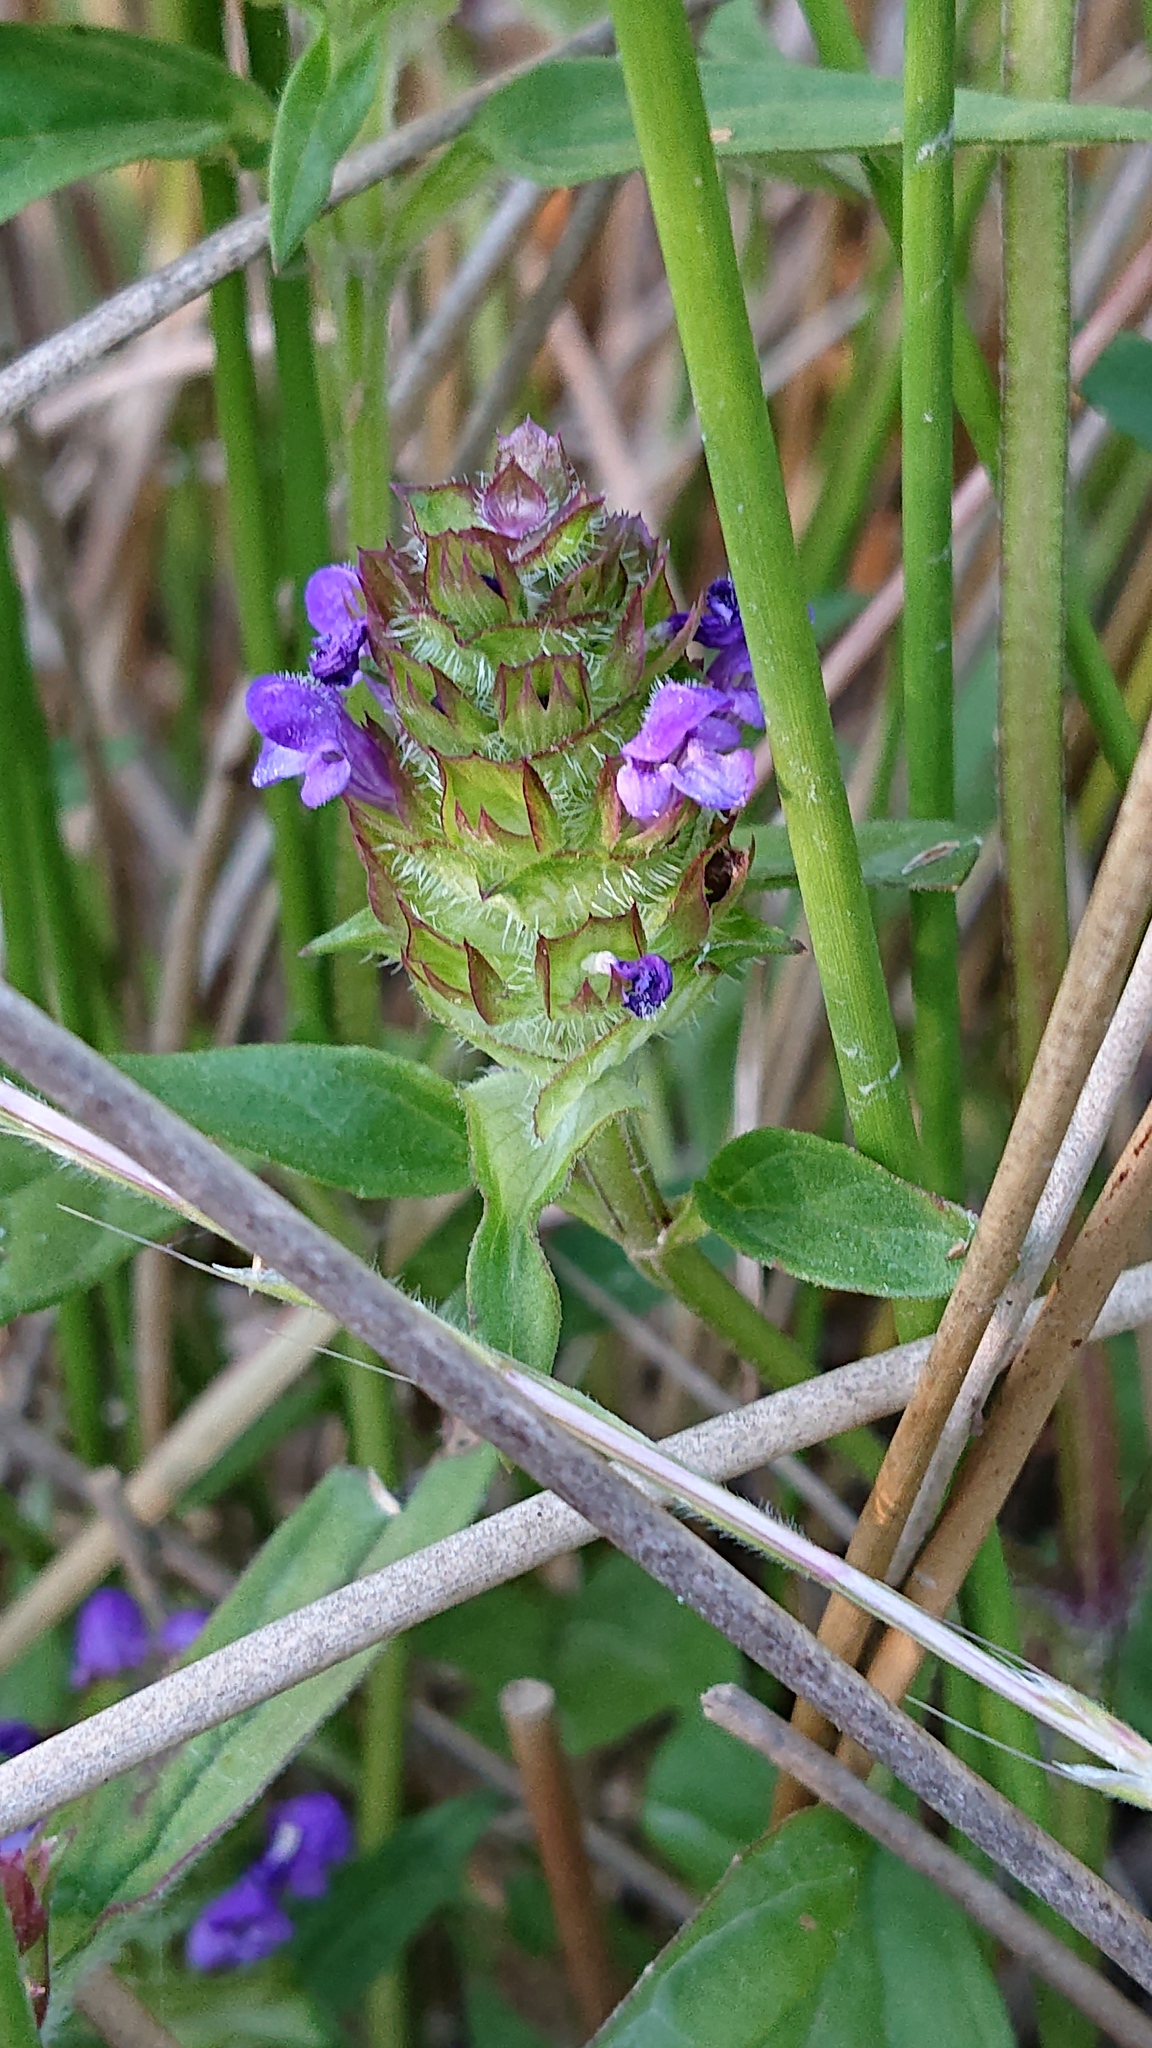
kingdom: Plantae
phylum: Tracheophyta
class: Magnoliopsida
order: Lamiales
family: Lamiaceae
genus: Prunella
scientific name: Prunella vulgaris
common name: Heal-all
